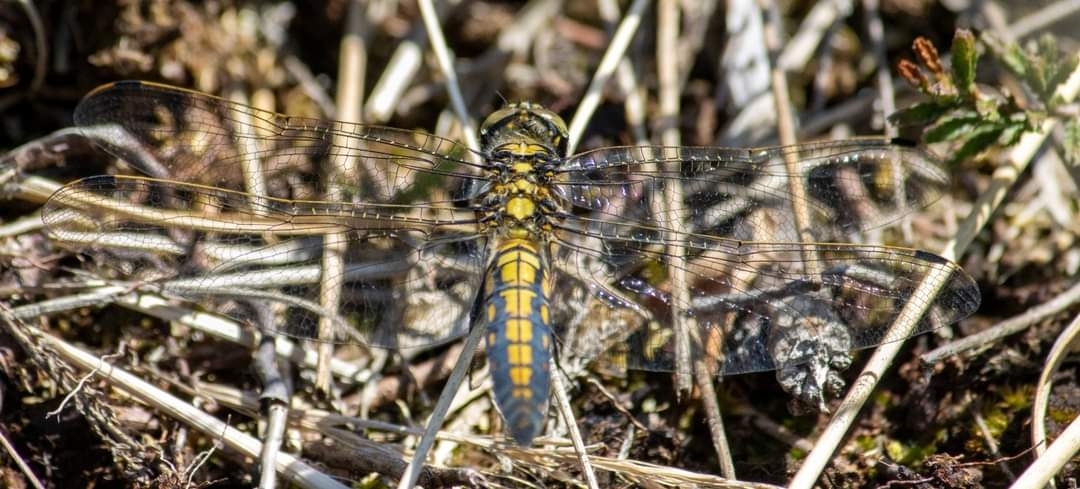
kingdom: Animalia
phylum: Arthropoda
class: Insecta
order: Odonata
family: Libellulidae
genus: Orthetrum
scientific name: Orthetrum cancellatum
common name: Black-tailed skimmer
